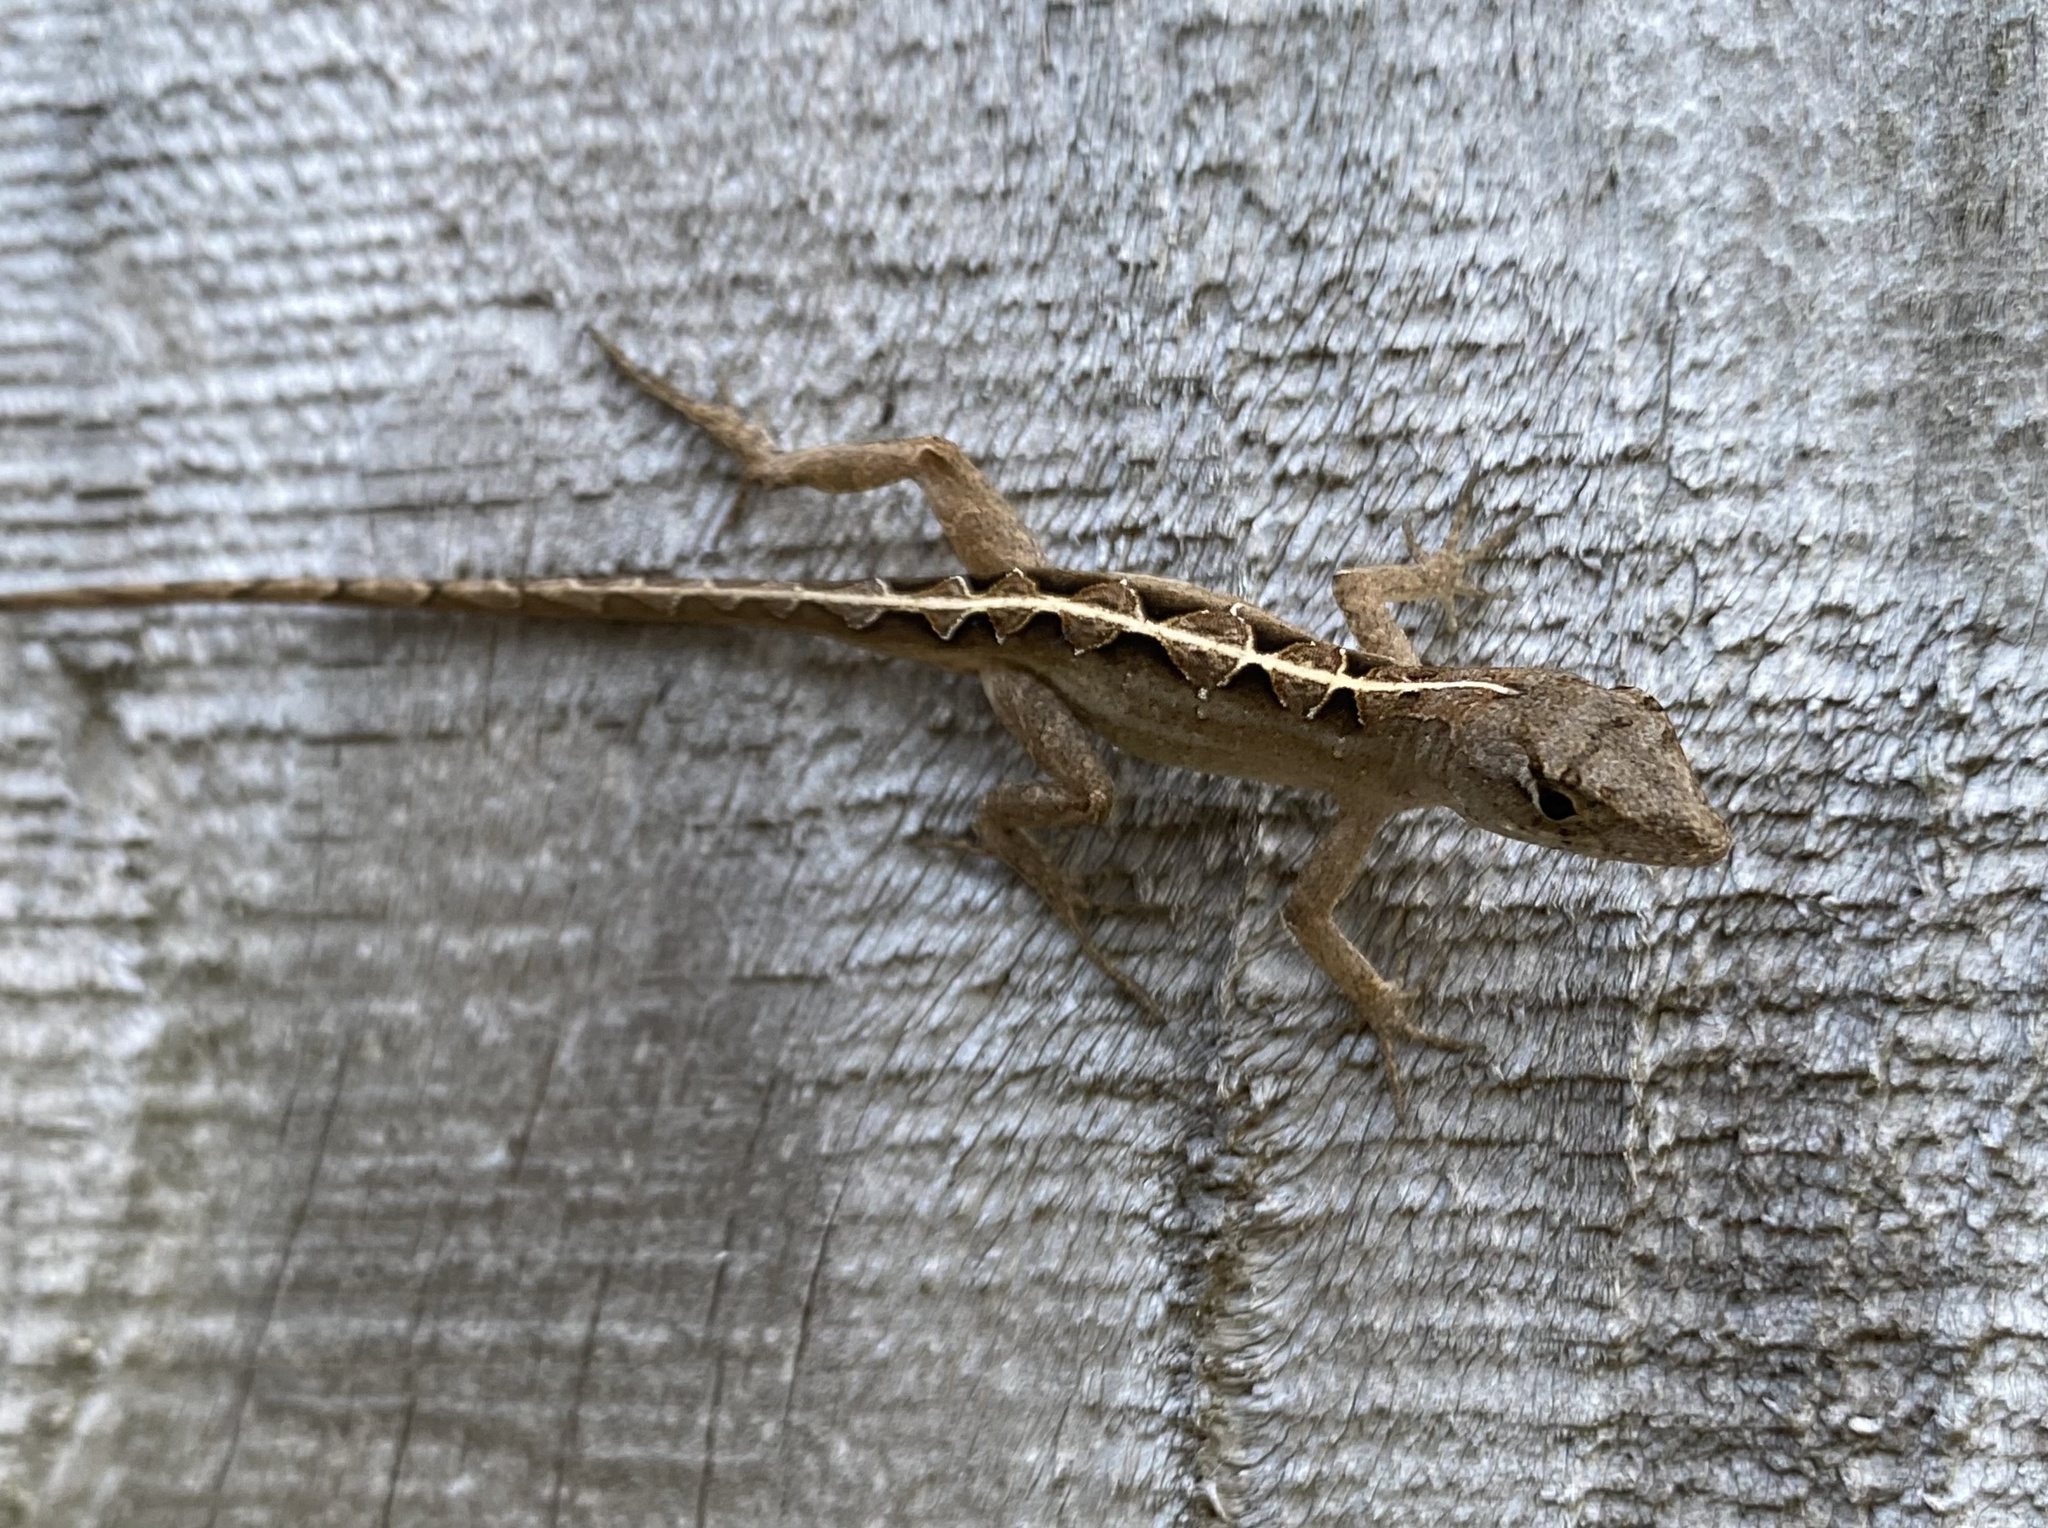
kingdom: Animalia
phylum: Chordata
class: Squamata
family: Dactyloidae
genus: Anolis
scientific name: Anolis sagrei
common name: Brown anole
